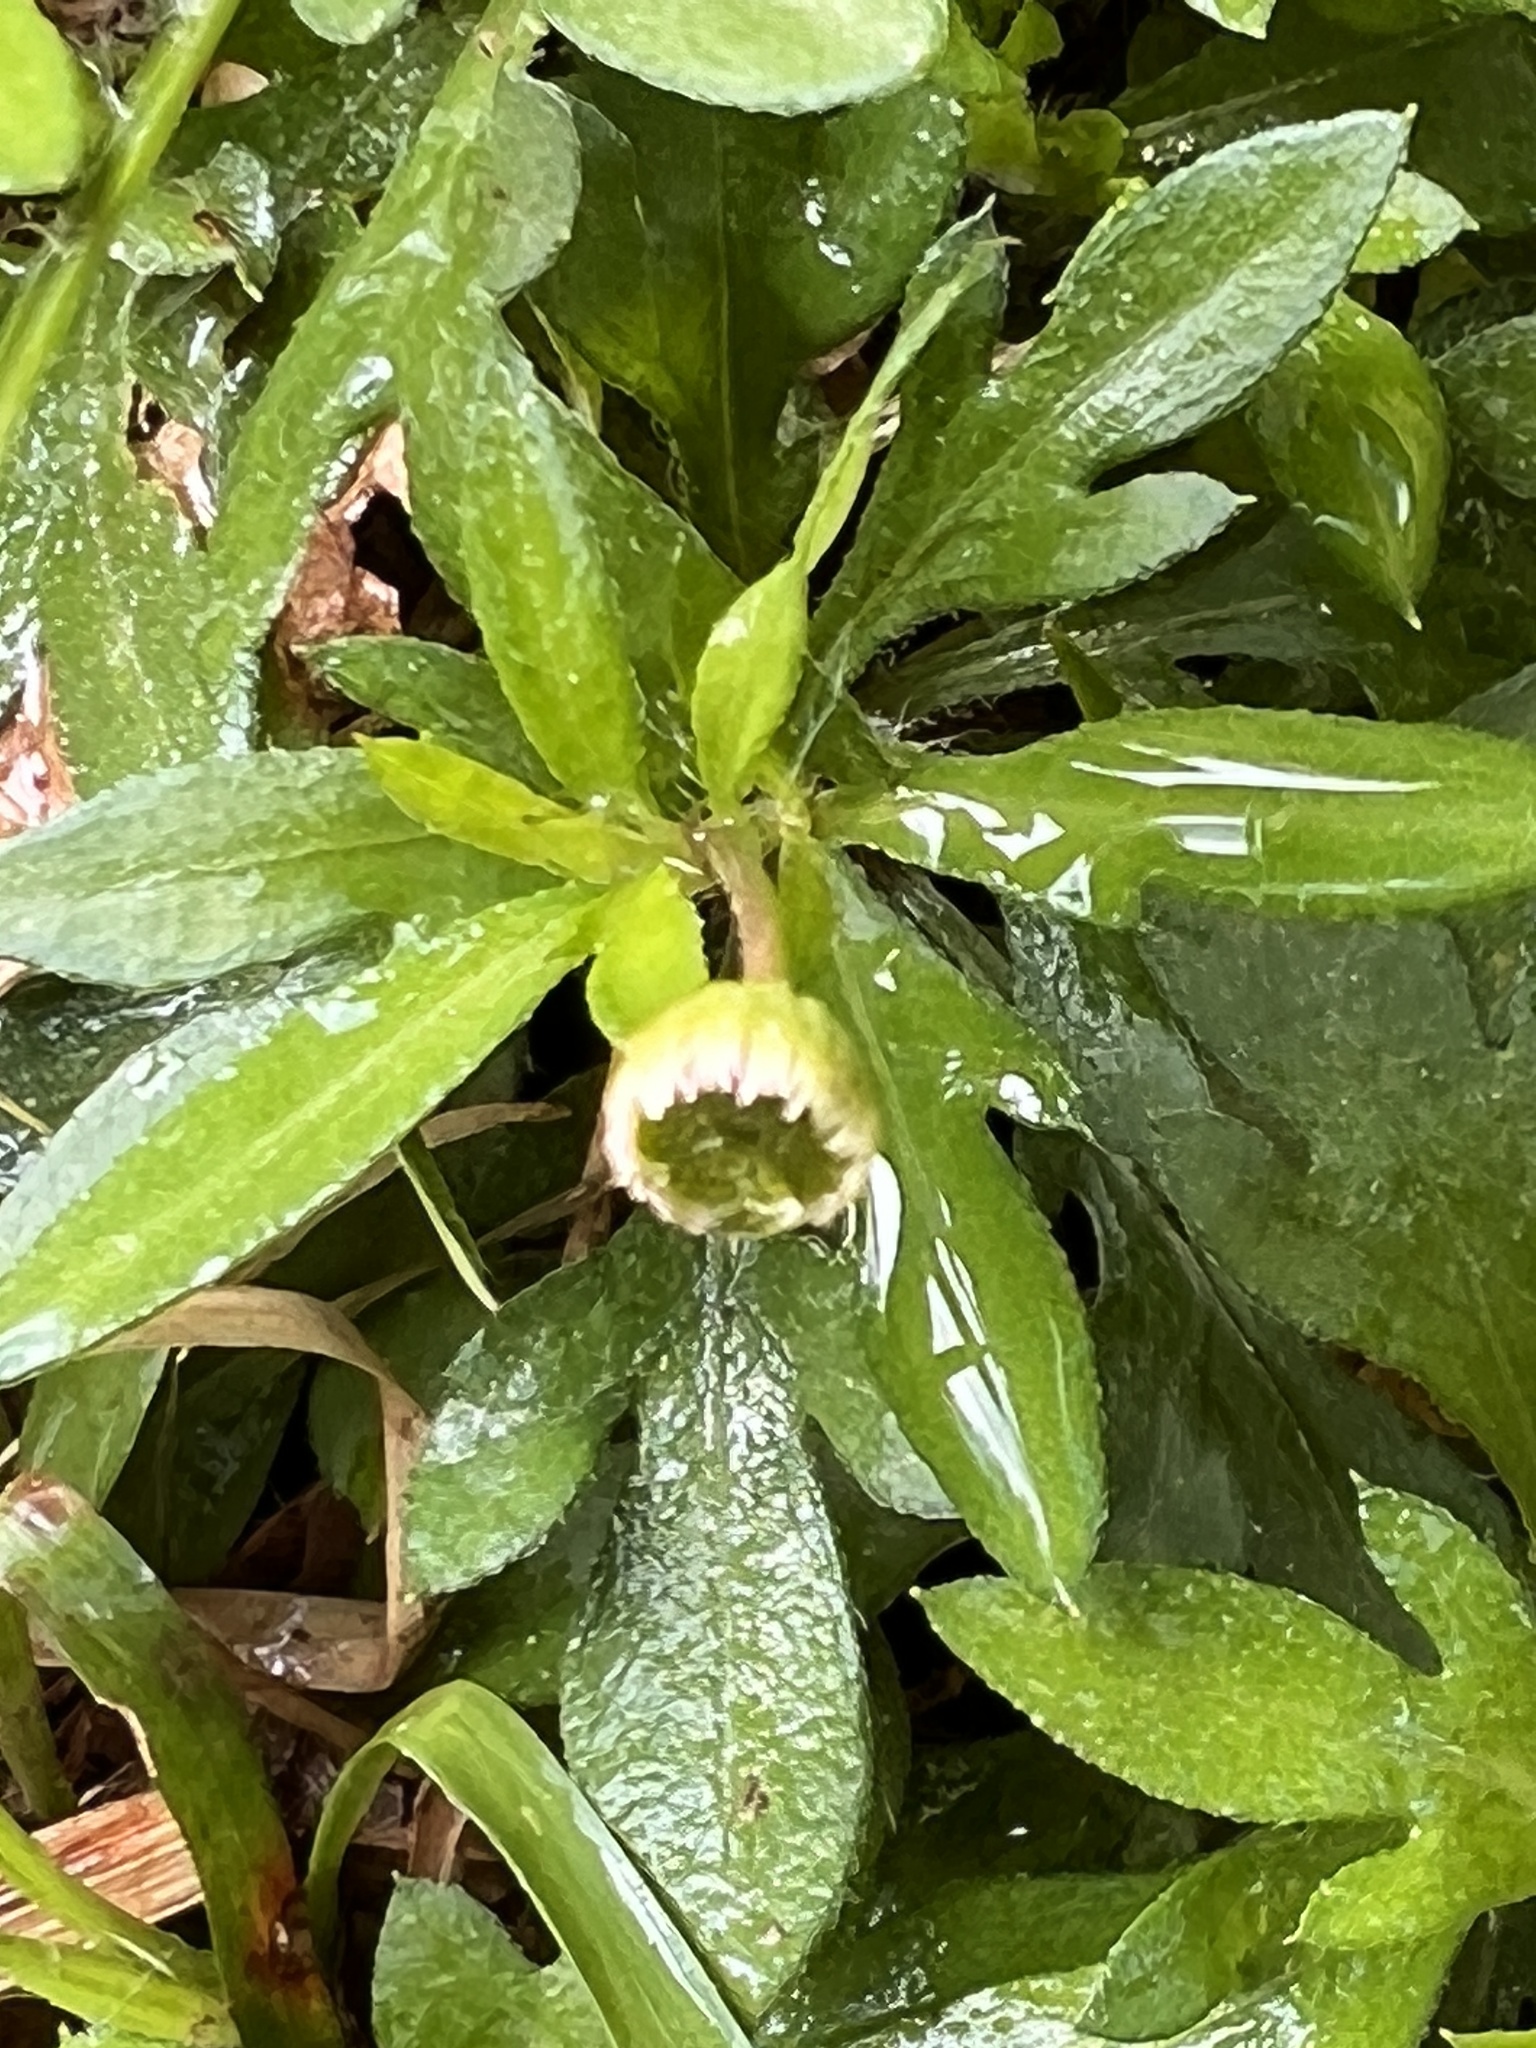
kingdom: Plantae
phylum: Tracheophyta
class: Magnoliopsida
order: Asterales
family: Asteraceae
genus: Erigeron
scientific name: Erigeron karvinskianus
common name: Mexican fleabane
